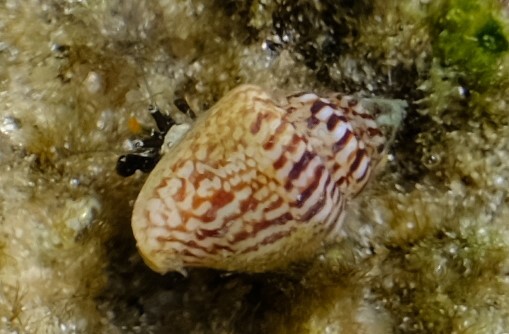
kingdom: Animalia
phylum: Mollusca
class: Gastropoda
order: Neogastropoda
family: Columbellidae
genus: Euplica
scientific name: Euplica bidentata
